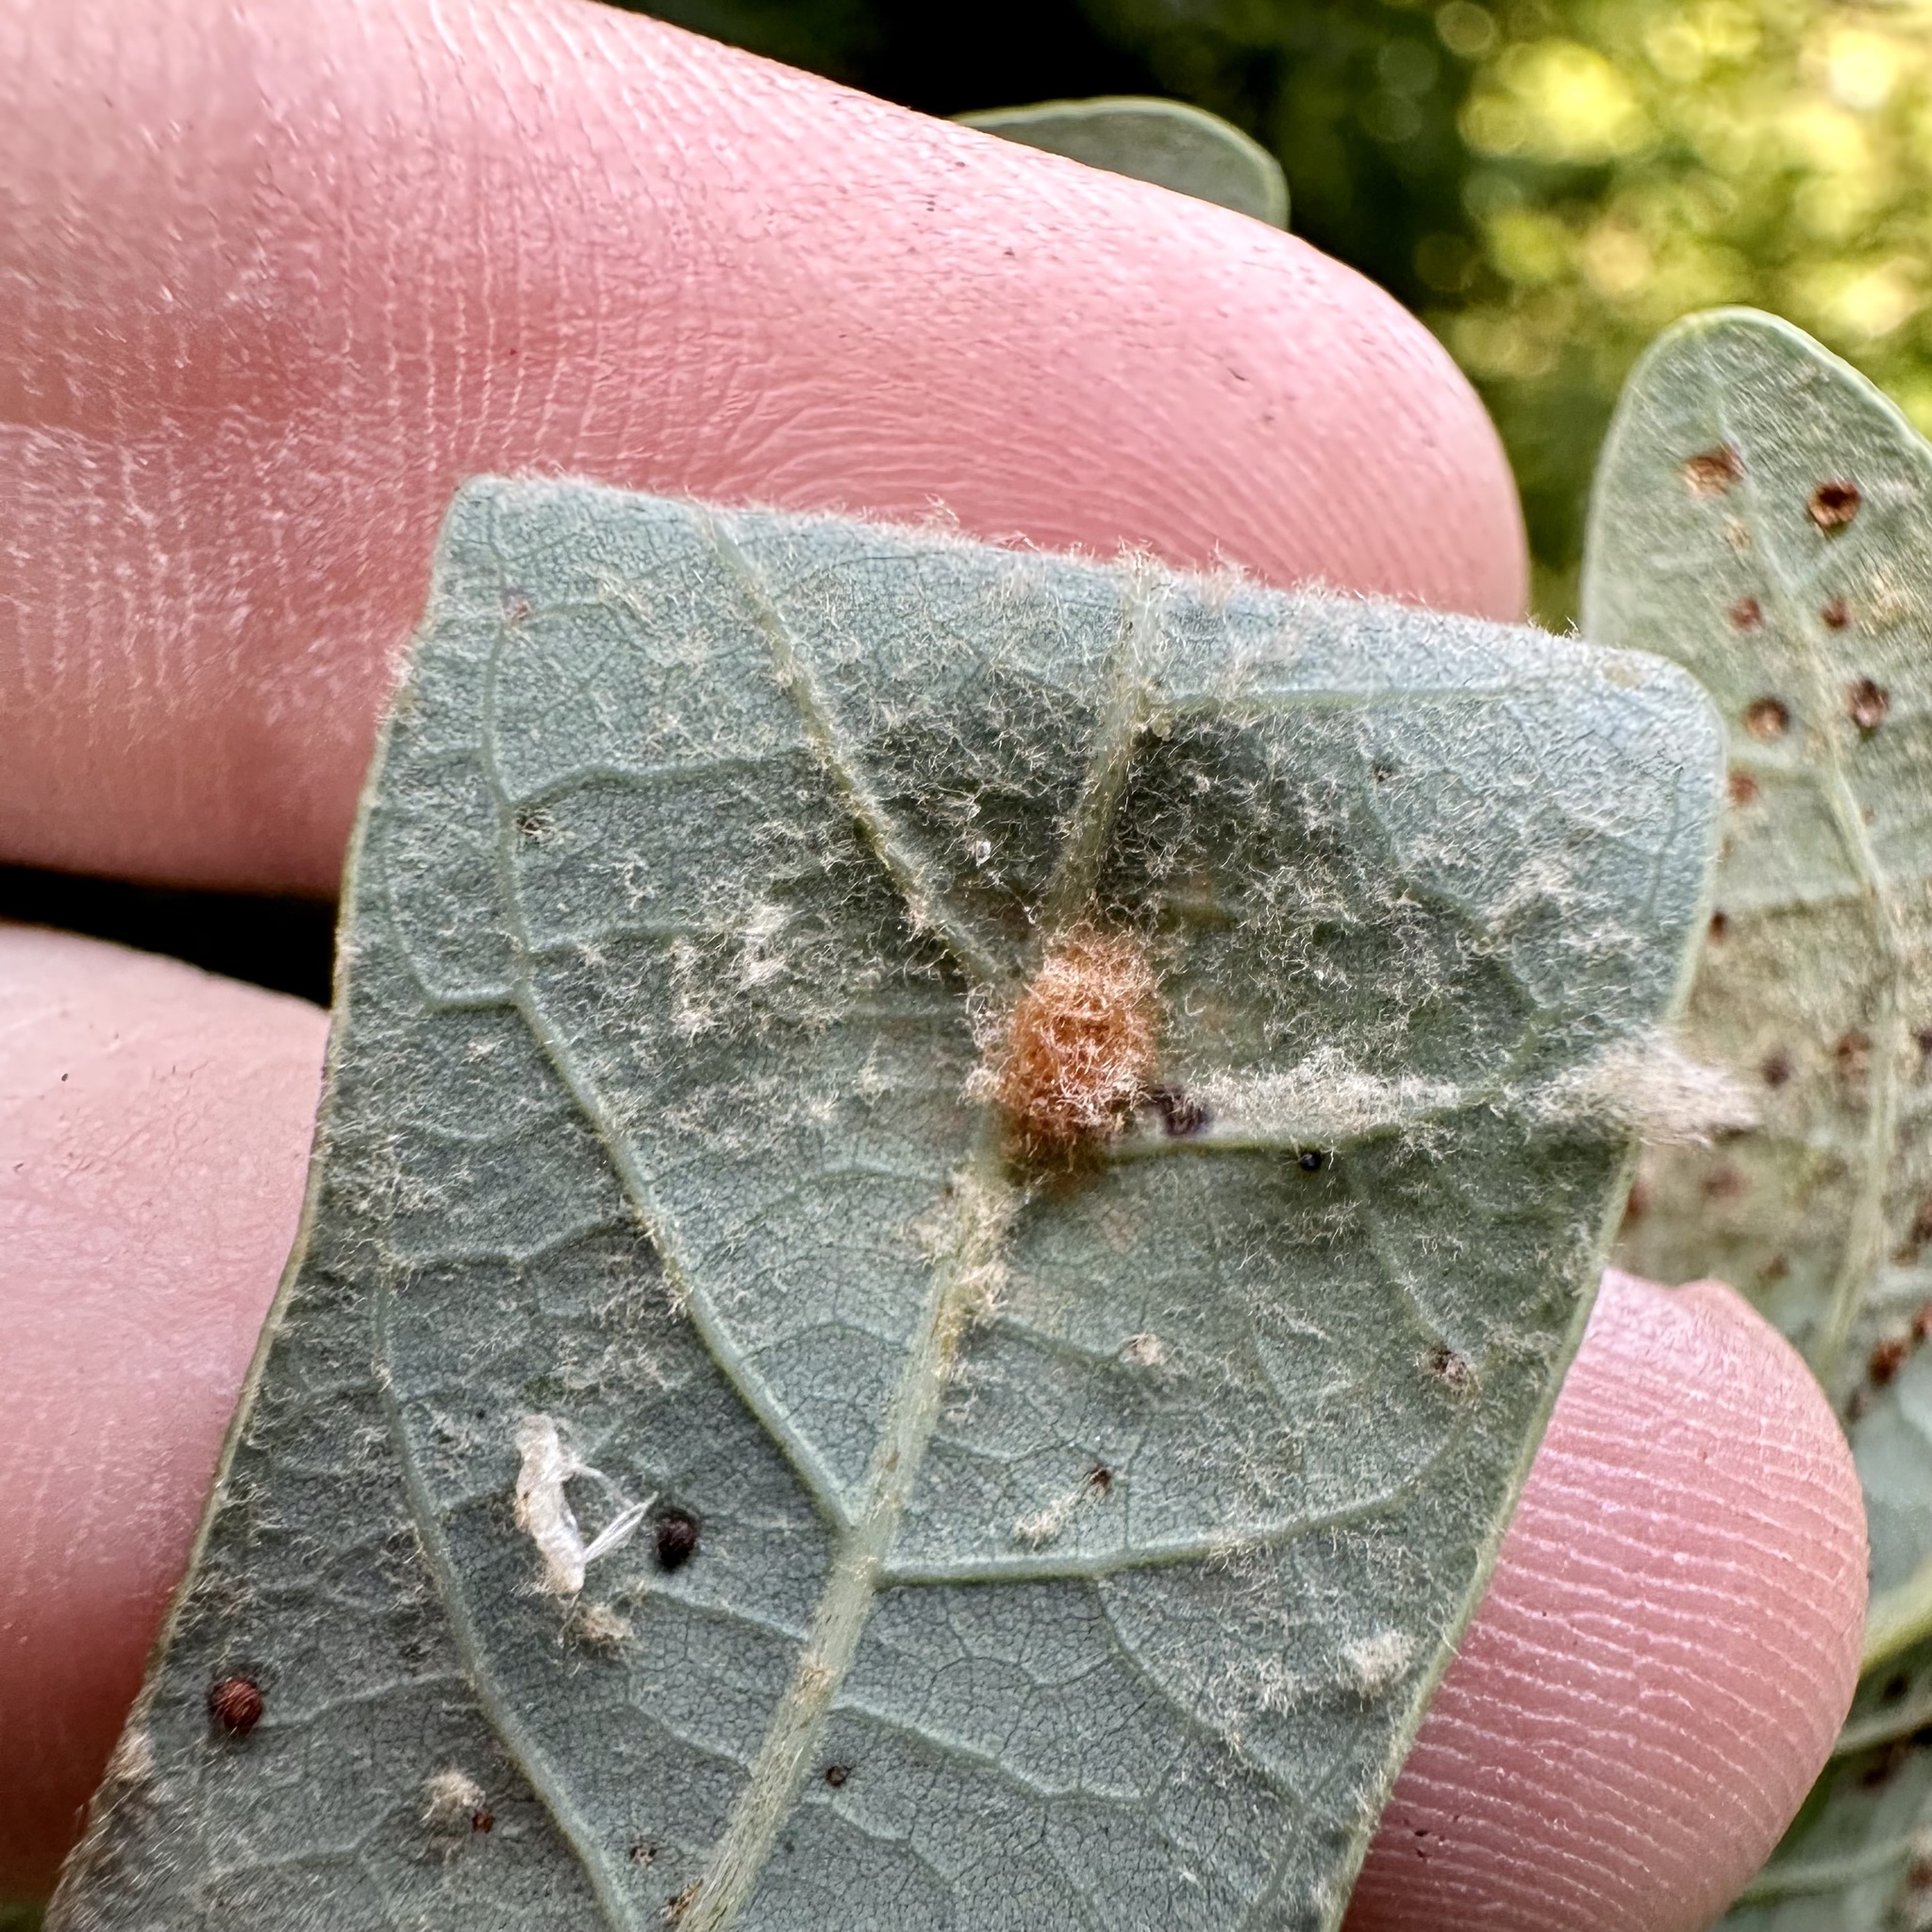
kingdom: Animalia
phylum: Arthropoda
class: Insecta
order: Hymenoptera
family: Cynipidae
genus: Andricus
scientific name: Andricus quercusflocci
